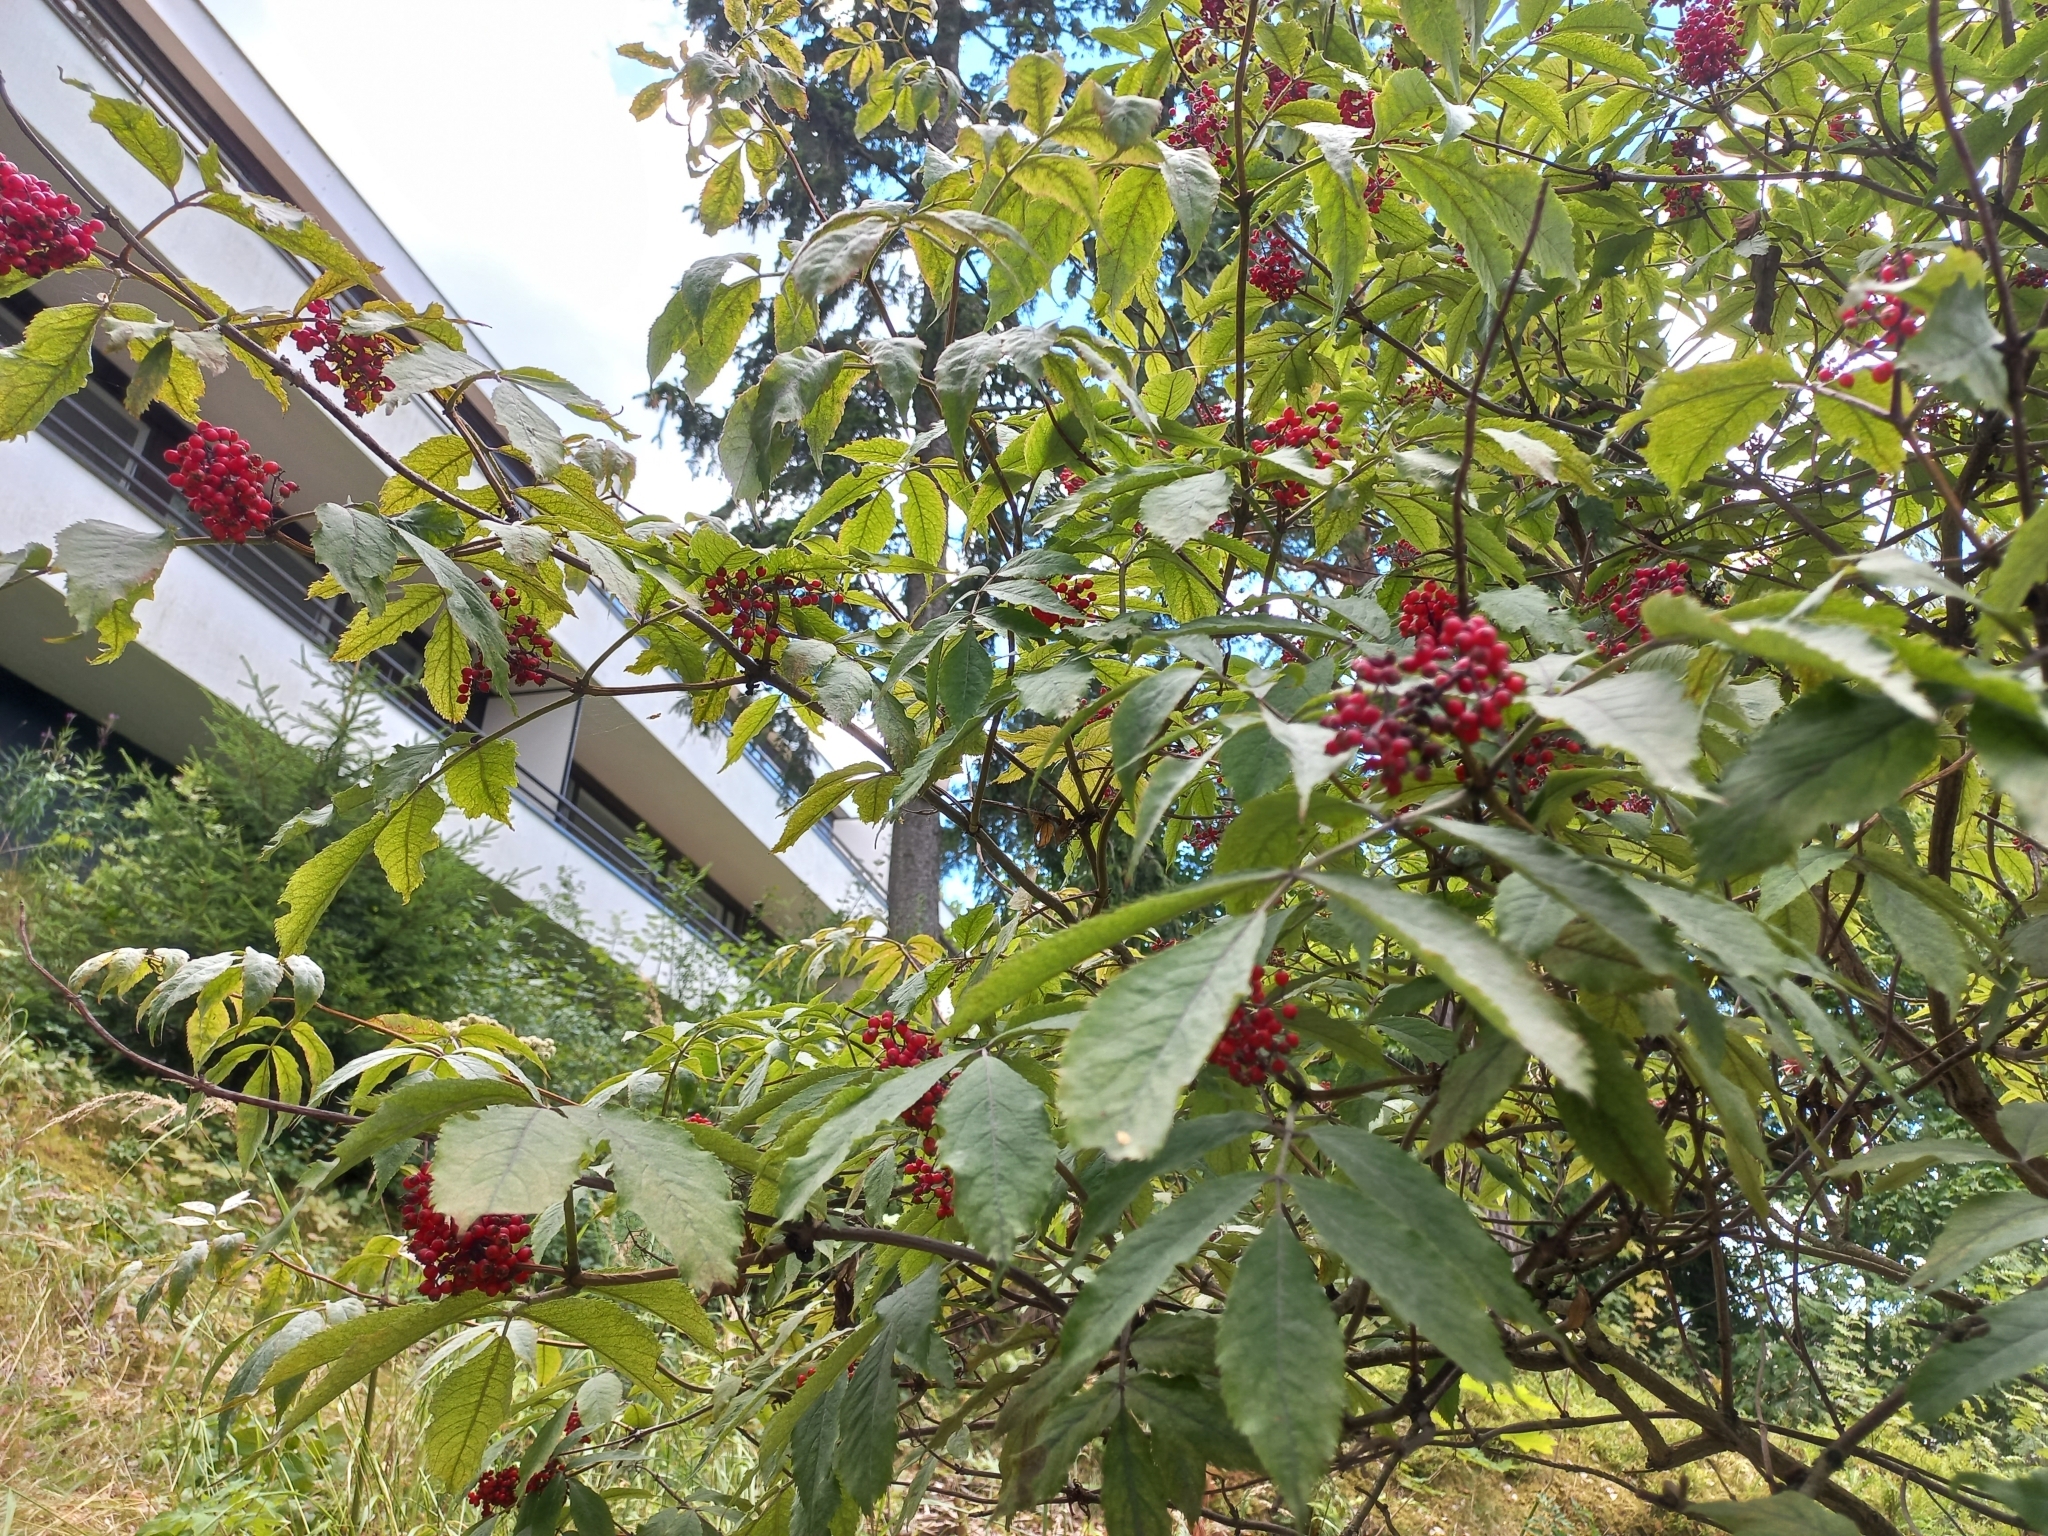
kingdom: Plantae
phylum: Tracheophyta
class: Magnoliopsida
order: Dipsacales
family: Viburnaceae
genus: Sambucus
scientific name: Sambucus racemosa
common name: Red-berried elder
